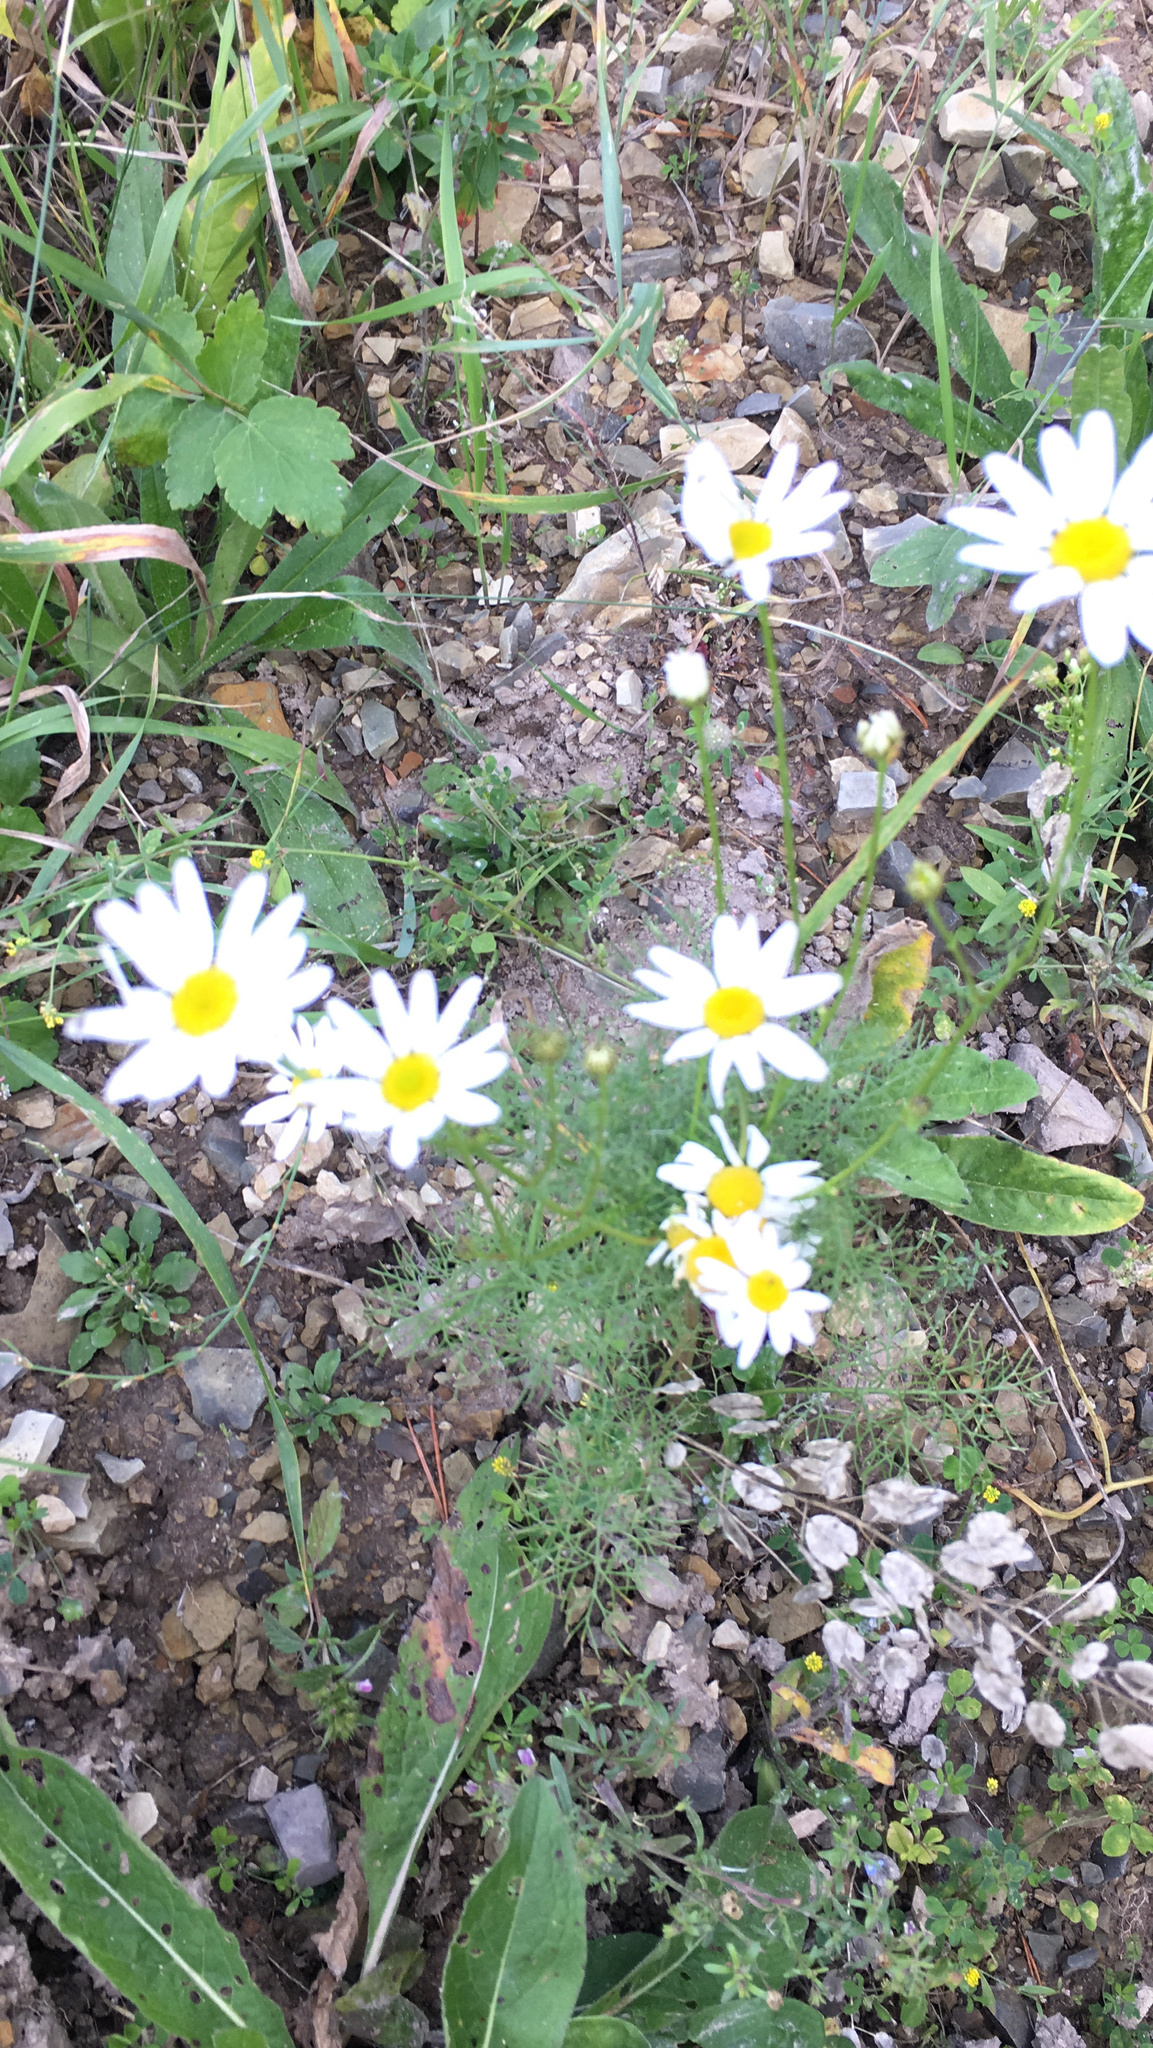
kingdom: Plantae
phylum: Tracheophyta
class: Magnoliopsida
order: Asterales
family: Asteraceae
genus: Tripleurospermum
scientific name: Tripleurospermum inodorum
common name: Scentless mayweed
